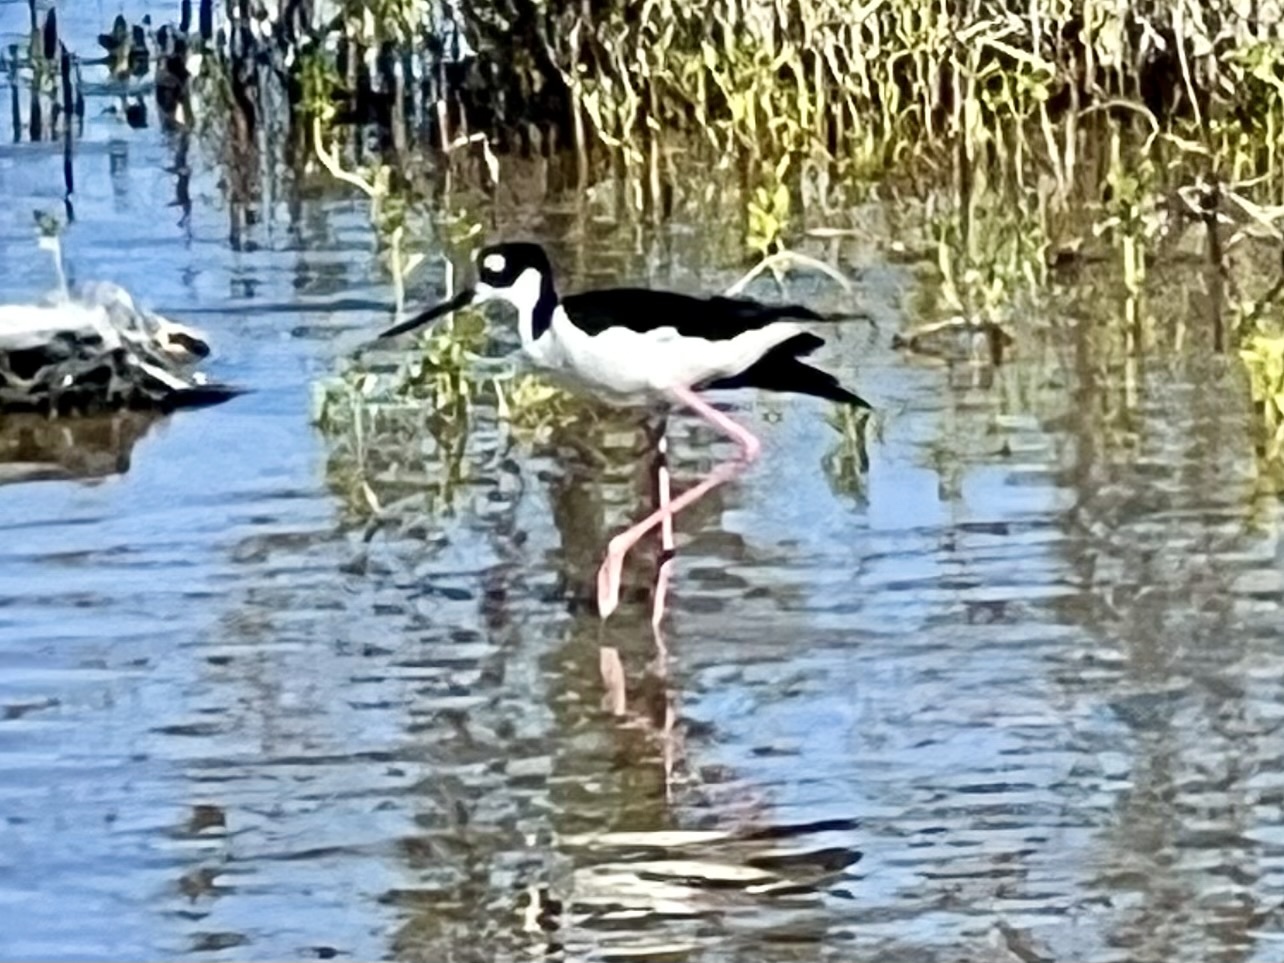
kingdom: Animalia
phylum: Chordata
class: Aves
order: Charadriiformes
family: Recurvirostridae
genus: Himantopus
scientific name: Himantopus mexicanus
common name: Black-necked stilt
